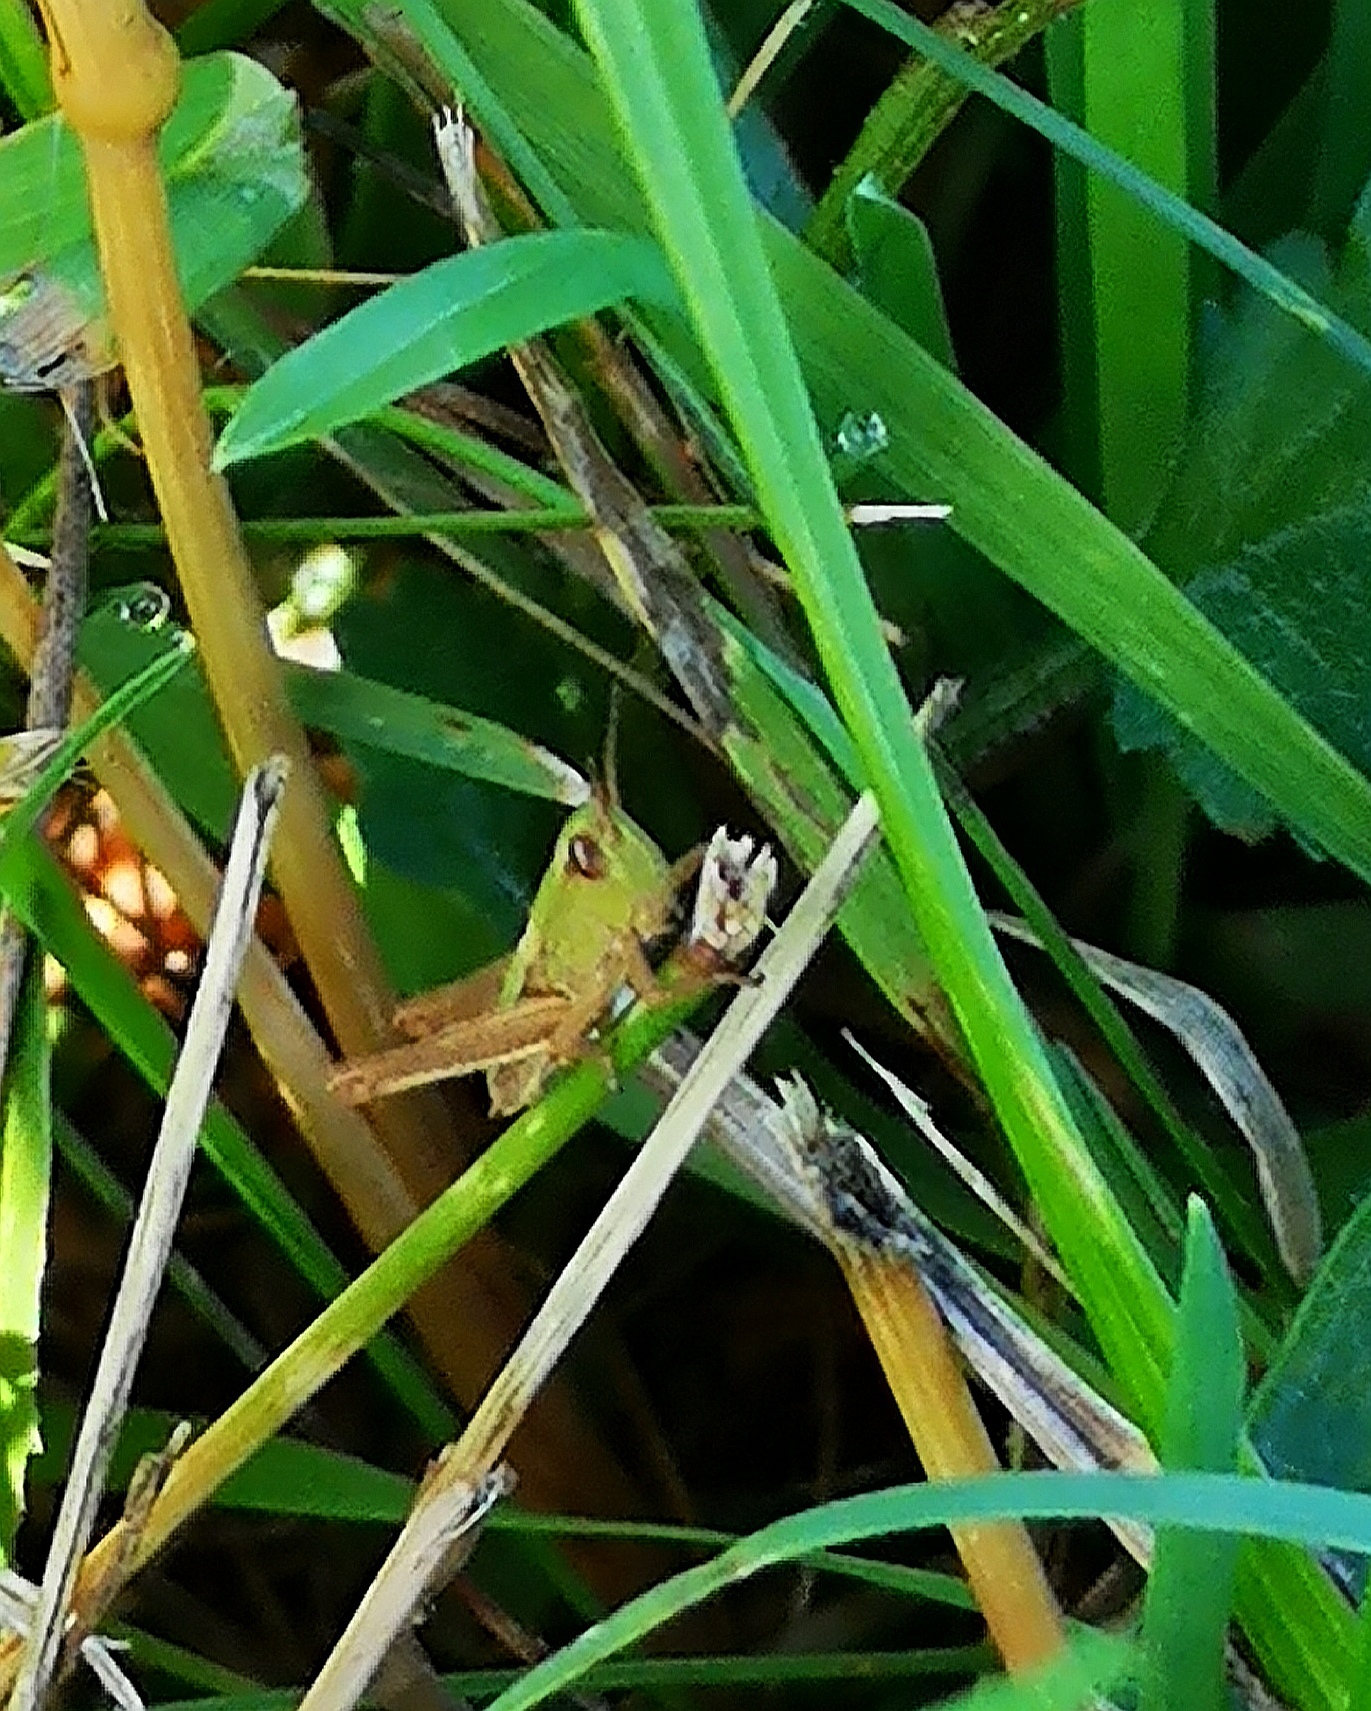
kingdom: Animalia
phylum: Arthropoda
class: Insecta
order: Orthoptera
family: Acrididae
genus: Pseudochorthippus
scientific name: Pseudochorthippus parallelus
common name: Meadow grasshopper
